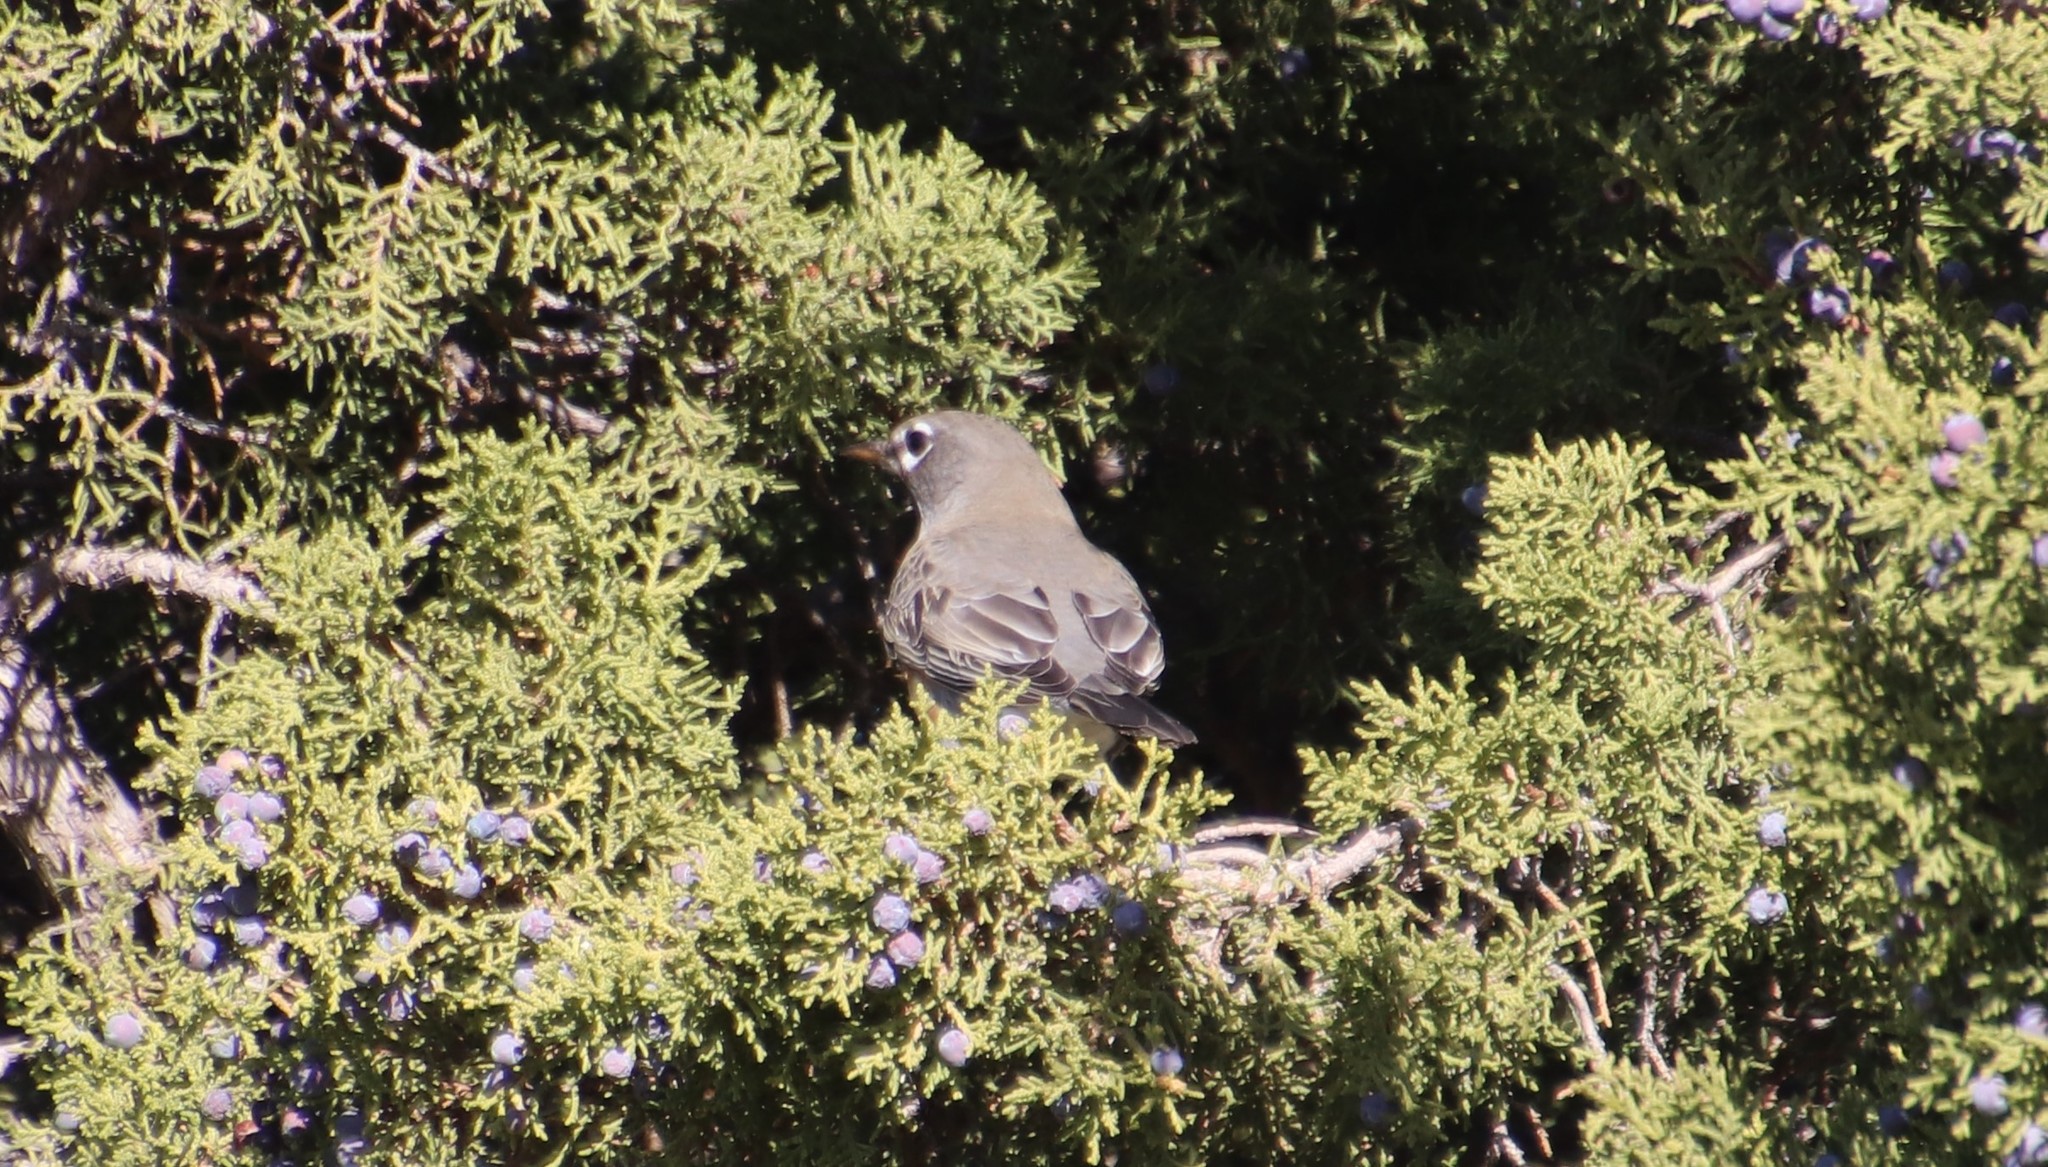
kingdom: Animalia
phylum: Chordata
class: Aves
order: Passeriformes
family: Turdidae
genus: Turdus
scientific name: Turdus migratorius
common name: American robin
